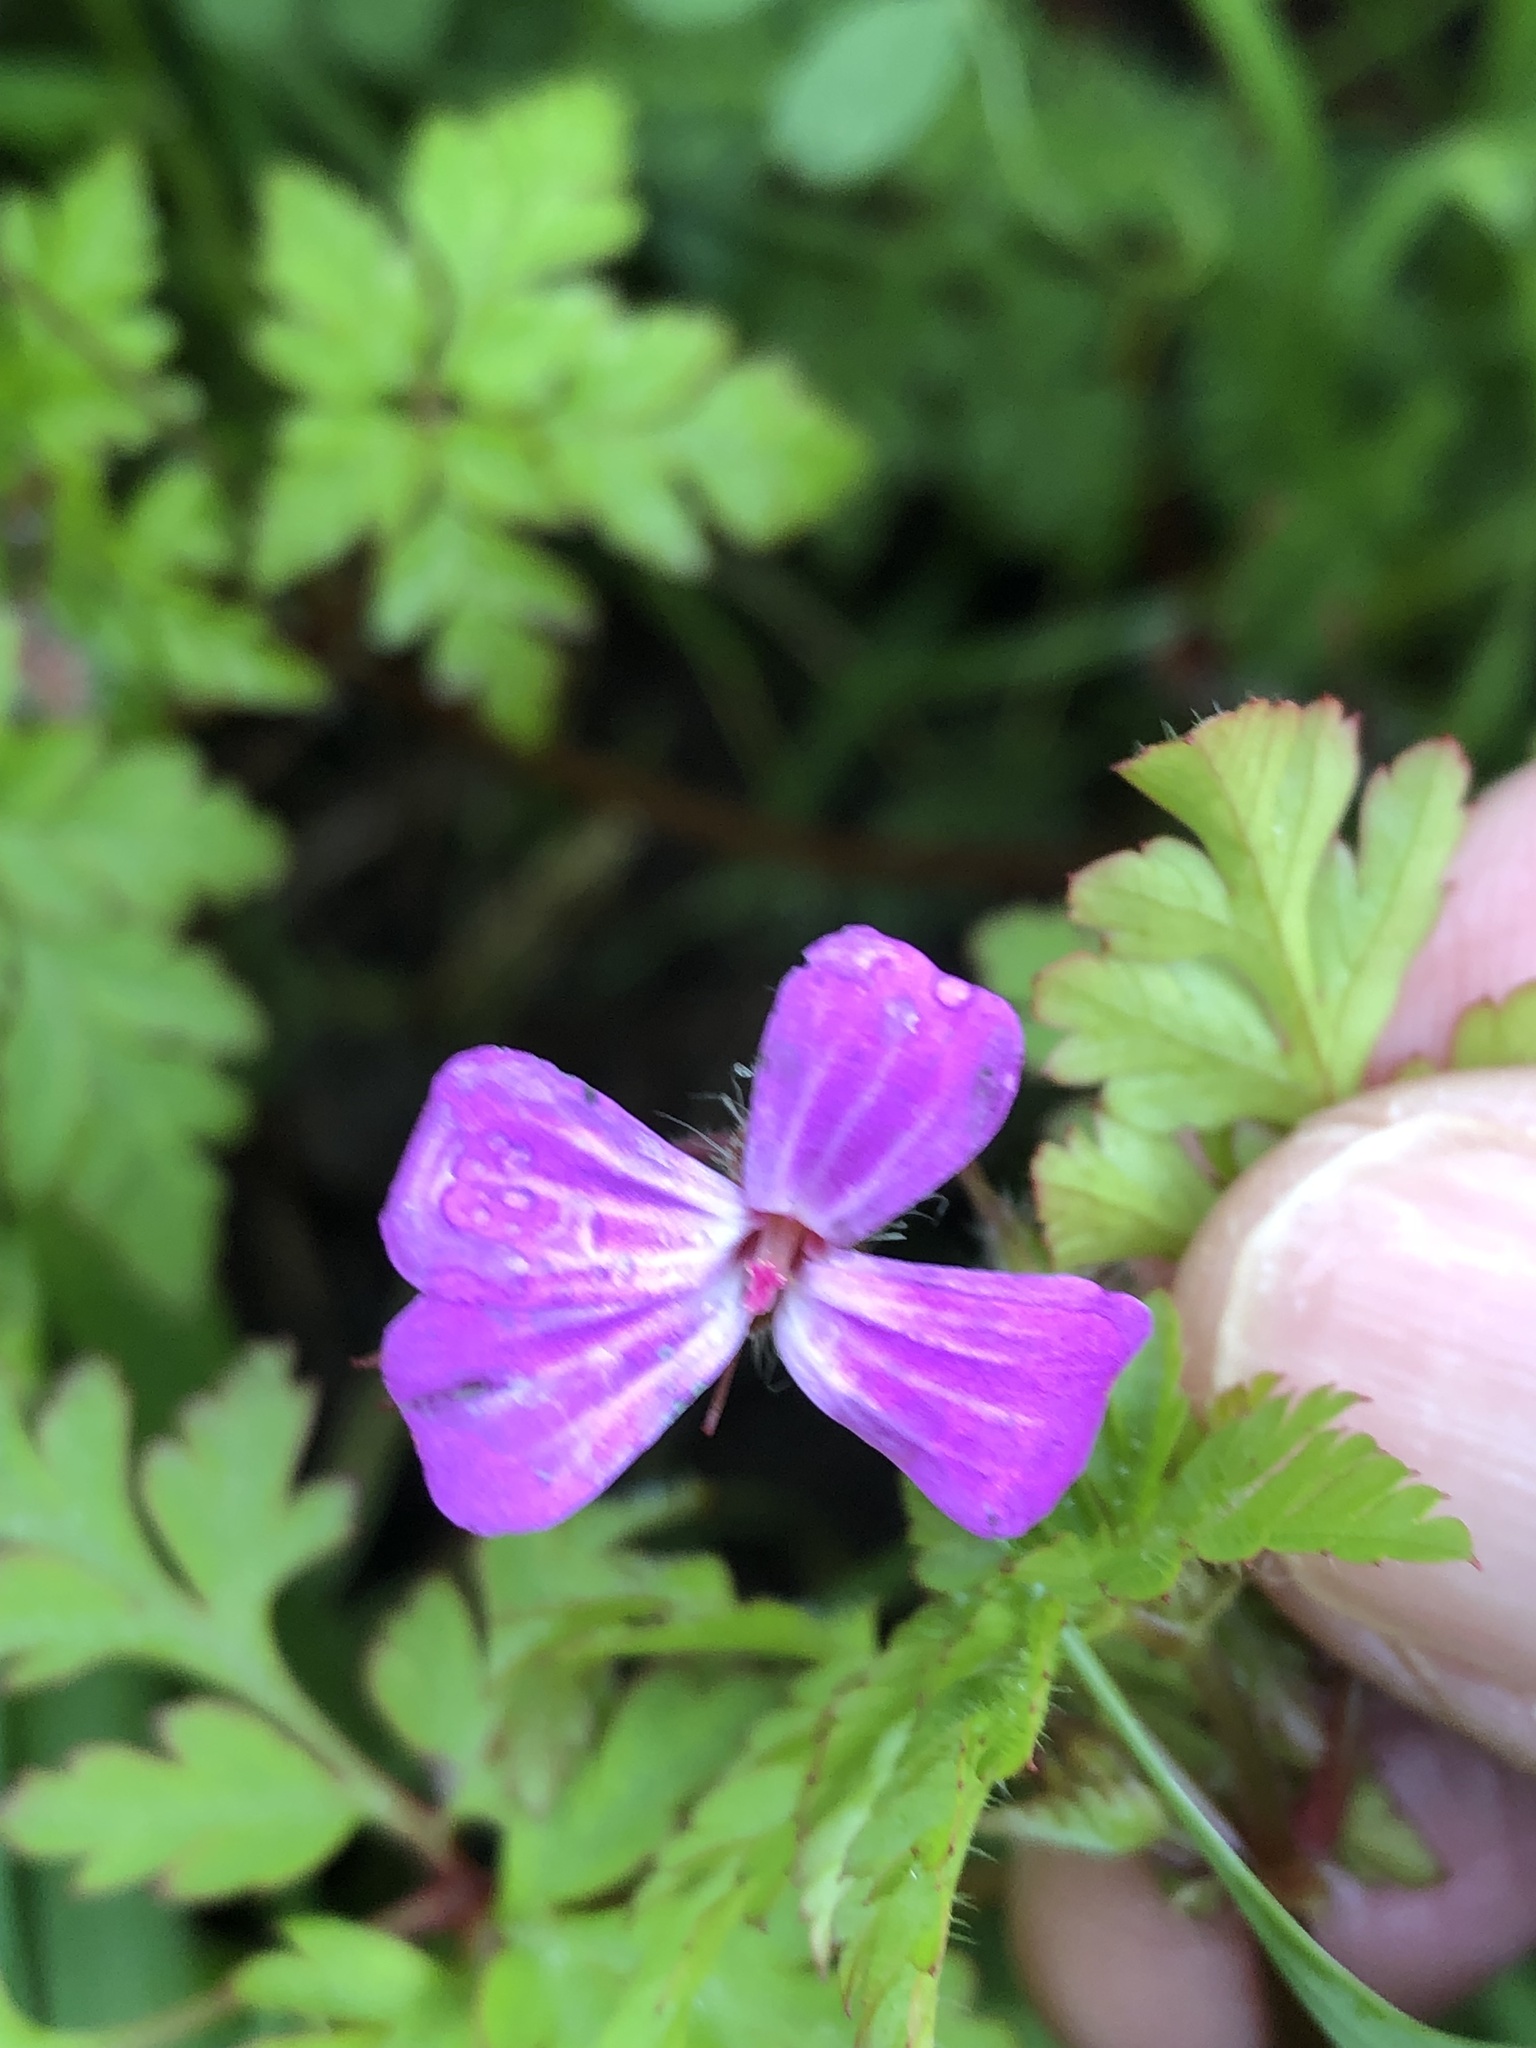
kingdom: Plantae
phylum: Tracheophyta
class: Magnoliopsida
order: Geraniales
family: Geraniaceae
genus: Geranium
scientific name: Geranium robertianum
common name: Herb-robert
